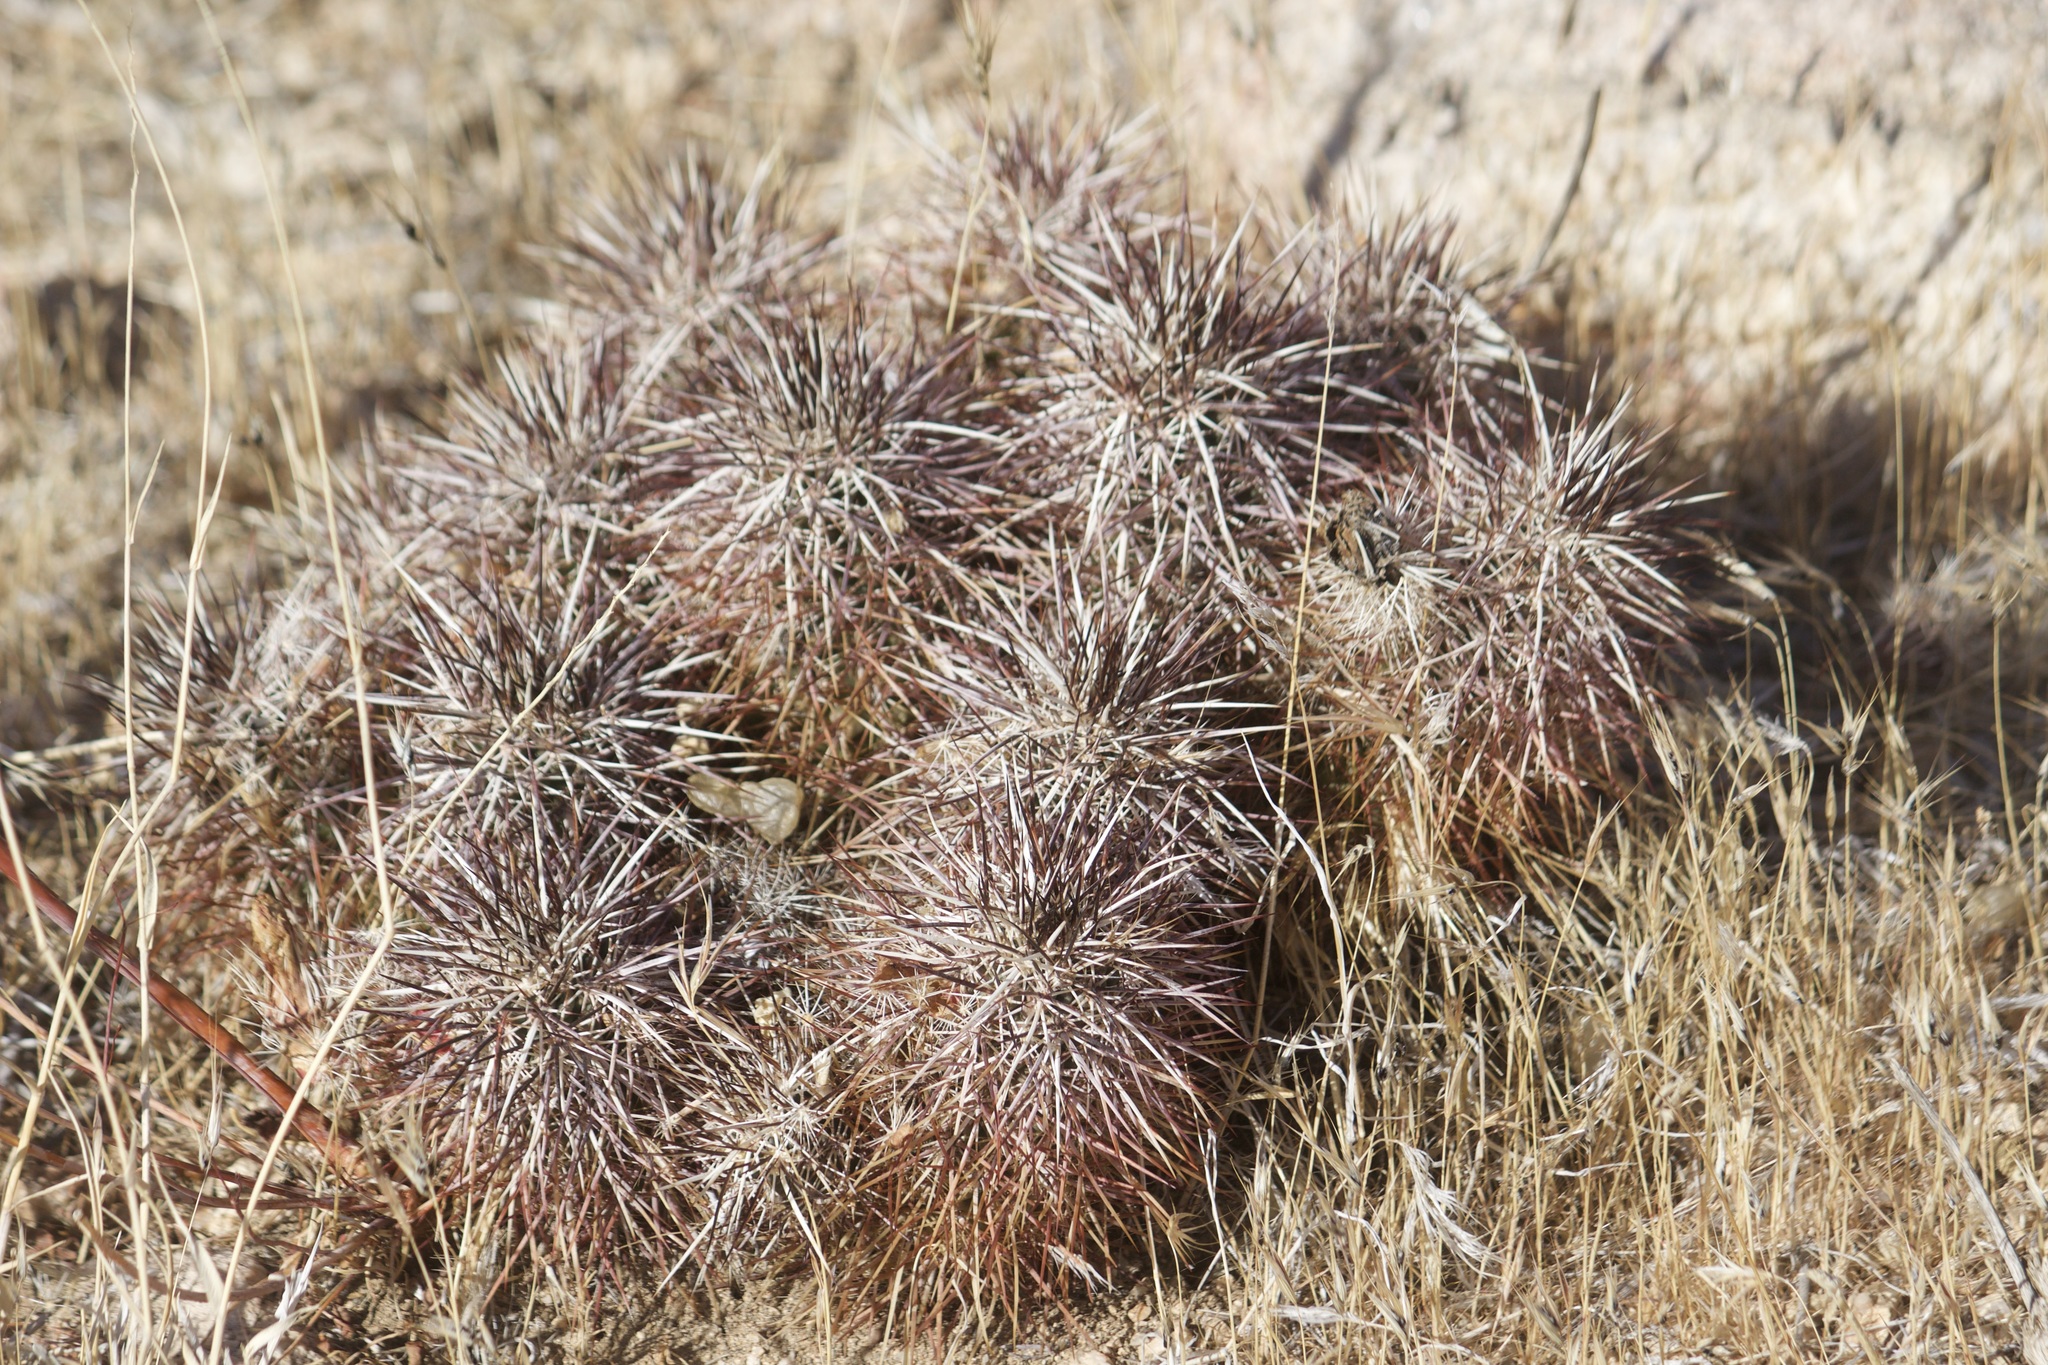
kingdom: Plantae
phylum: Tracheophyta
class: Magnoliopsida
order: Caryophyllales
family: Cactaceae
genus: Echinocereus
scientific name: Echinocereus engelmannii
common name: Engelmann's hedgehog cactus
